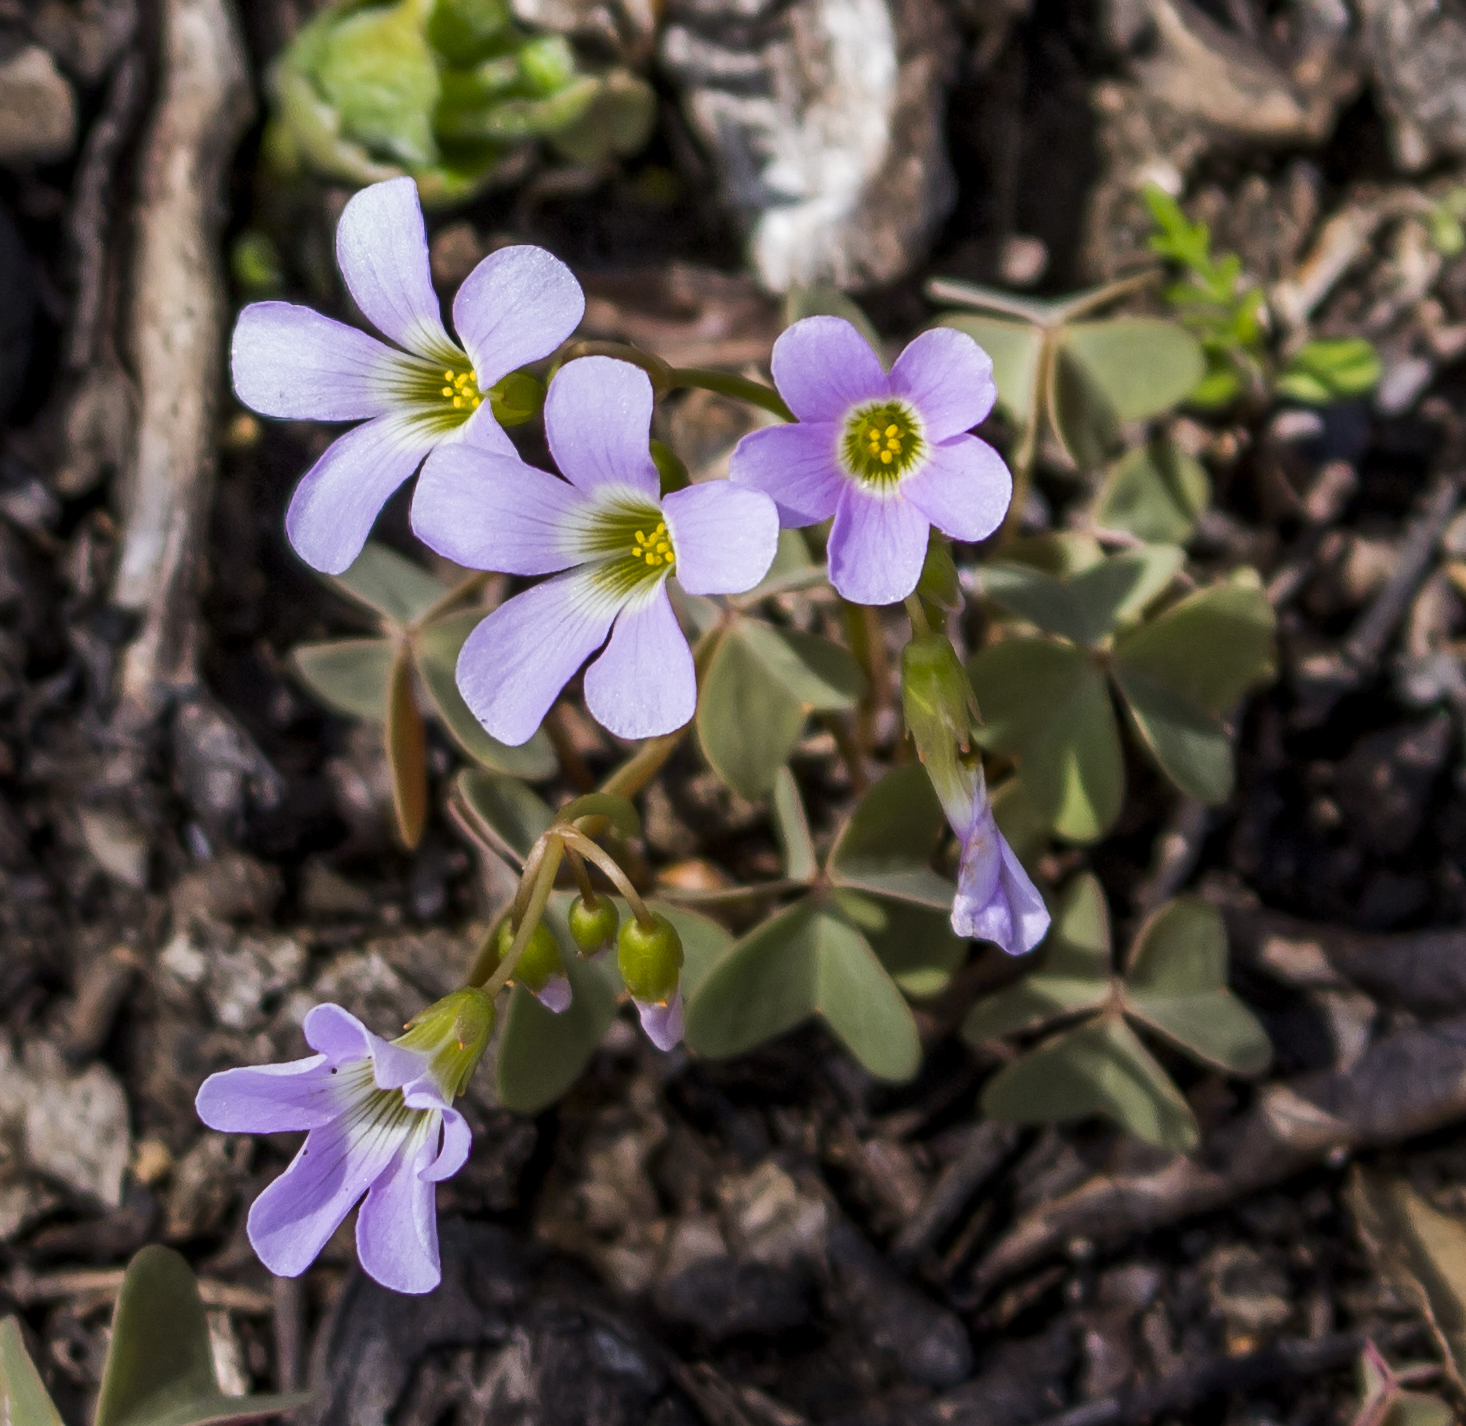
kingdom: Plantae
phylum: Tracheophyta
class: Magnoliopsida
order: Oxalidales
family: Oxalidaceae
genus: Oxalis
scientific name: Oxalis violacea
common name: Violet wood-sorrel
